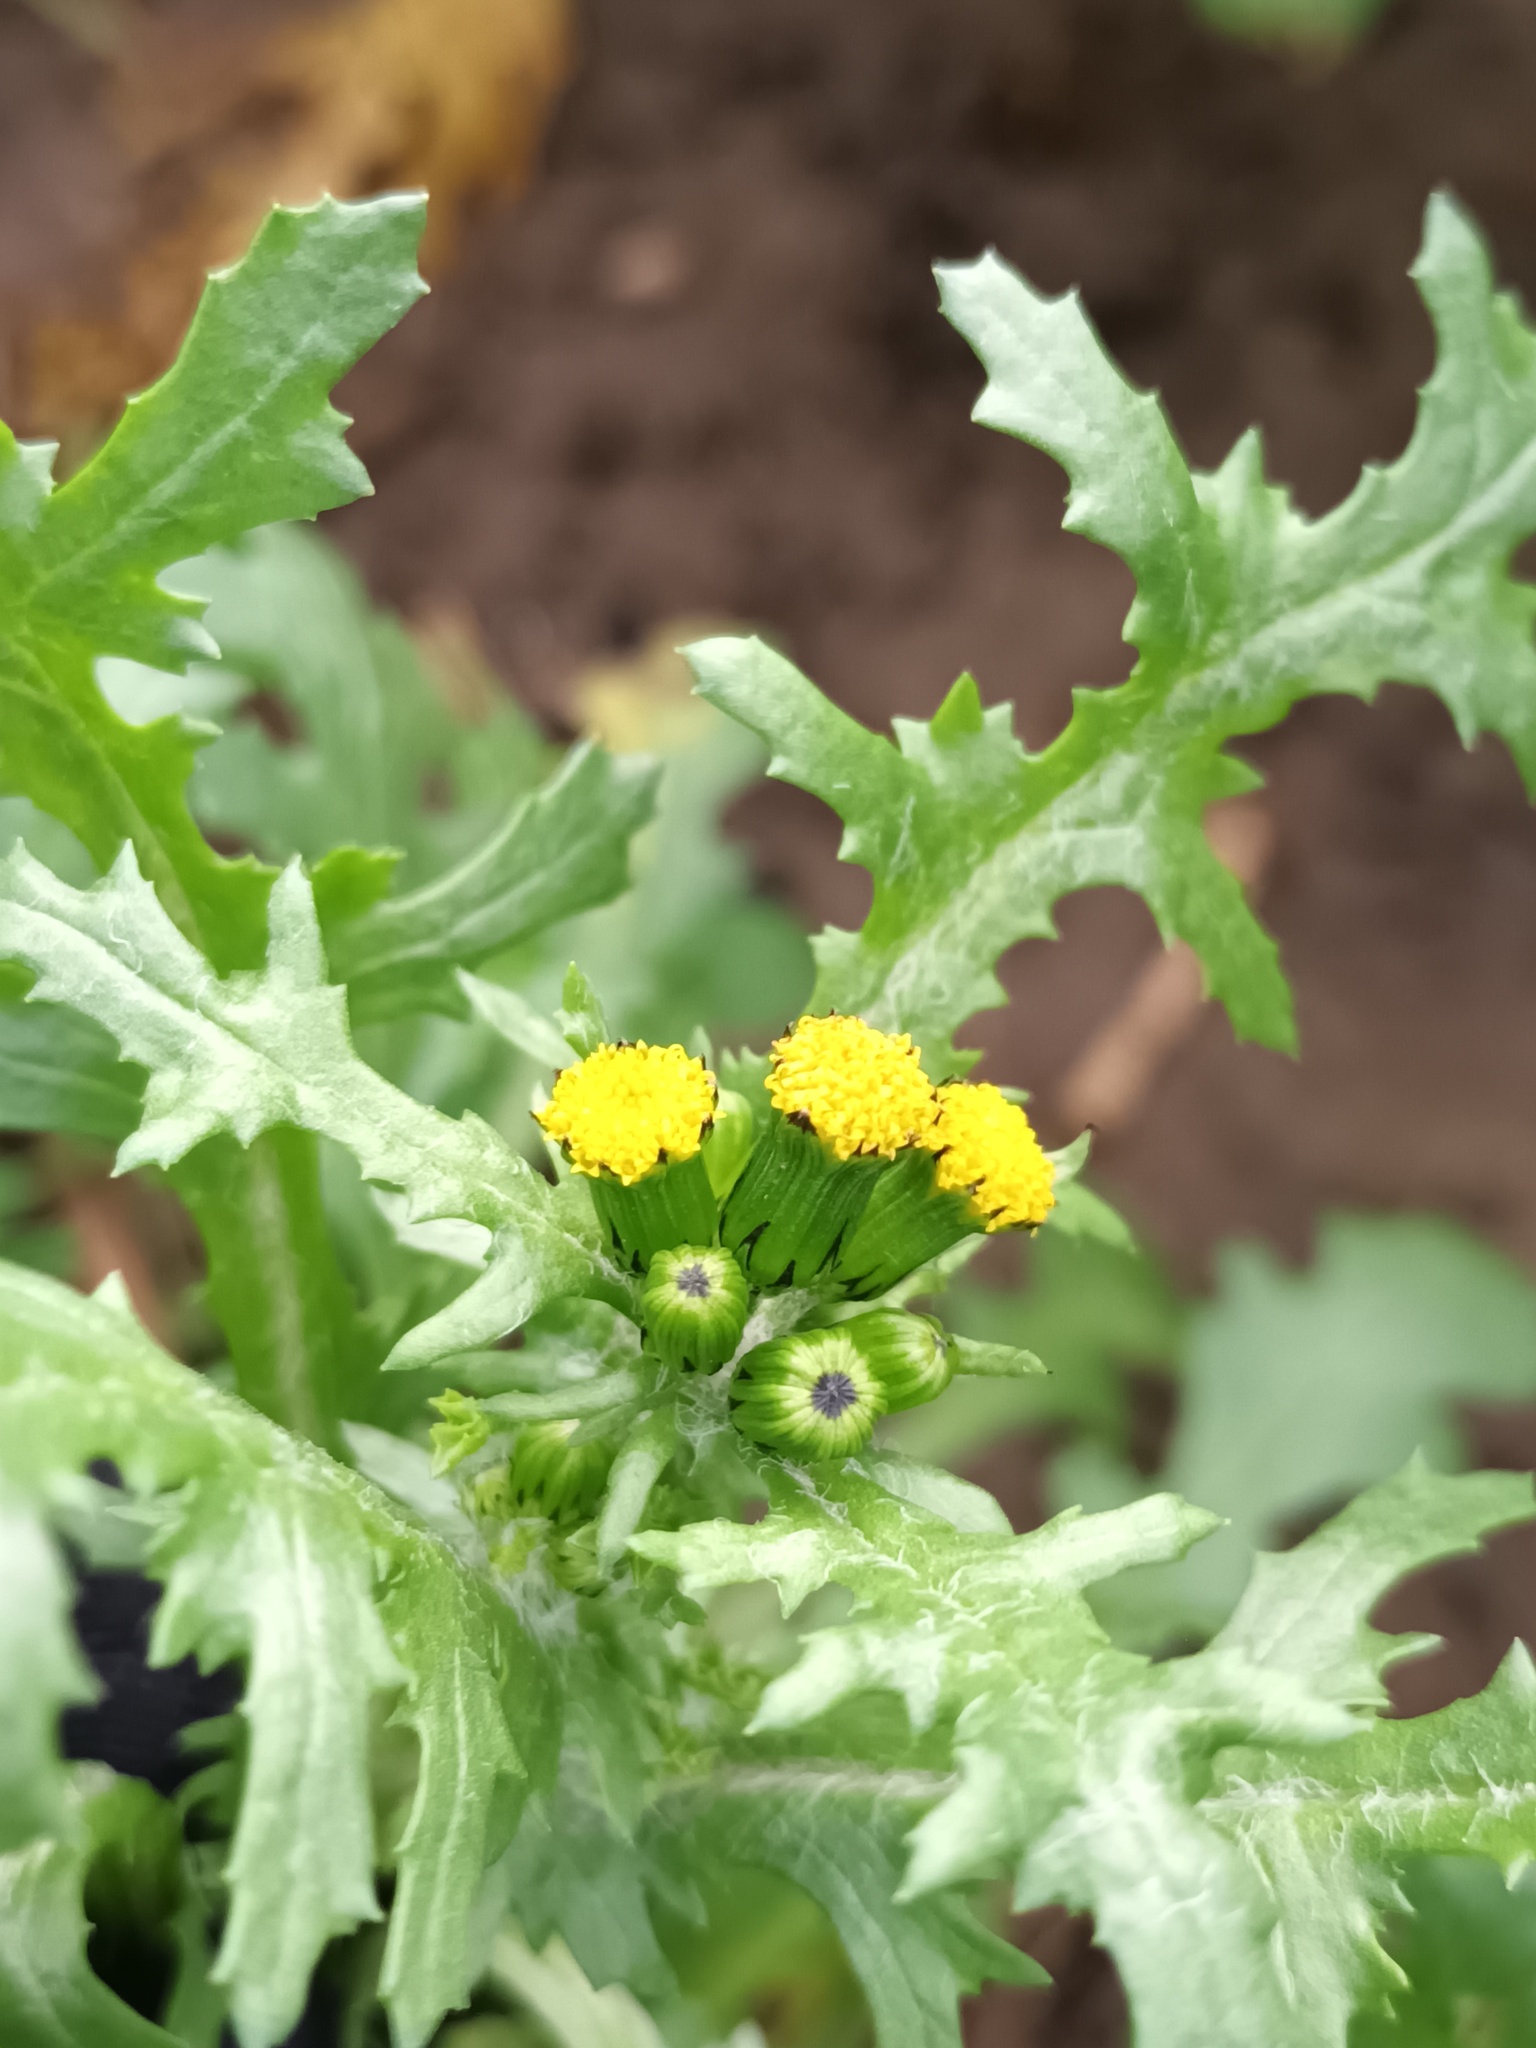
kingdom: Plantae
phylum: Tracheophyta
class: Magnoliopsida
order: Asterales
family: Asteraceae
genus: Senecio
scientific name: Senecio vulgaris
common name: Old-man-in-the-spring
